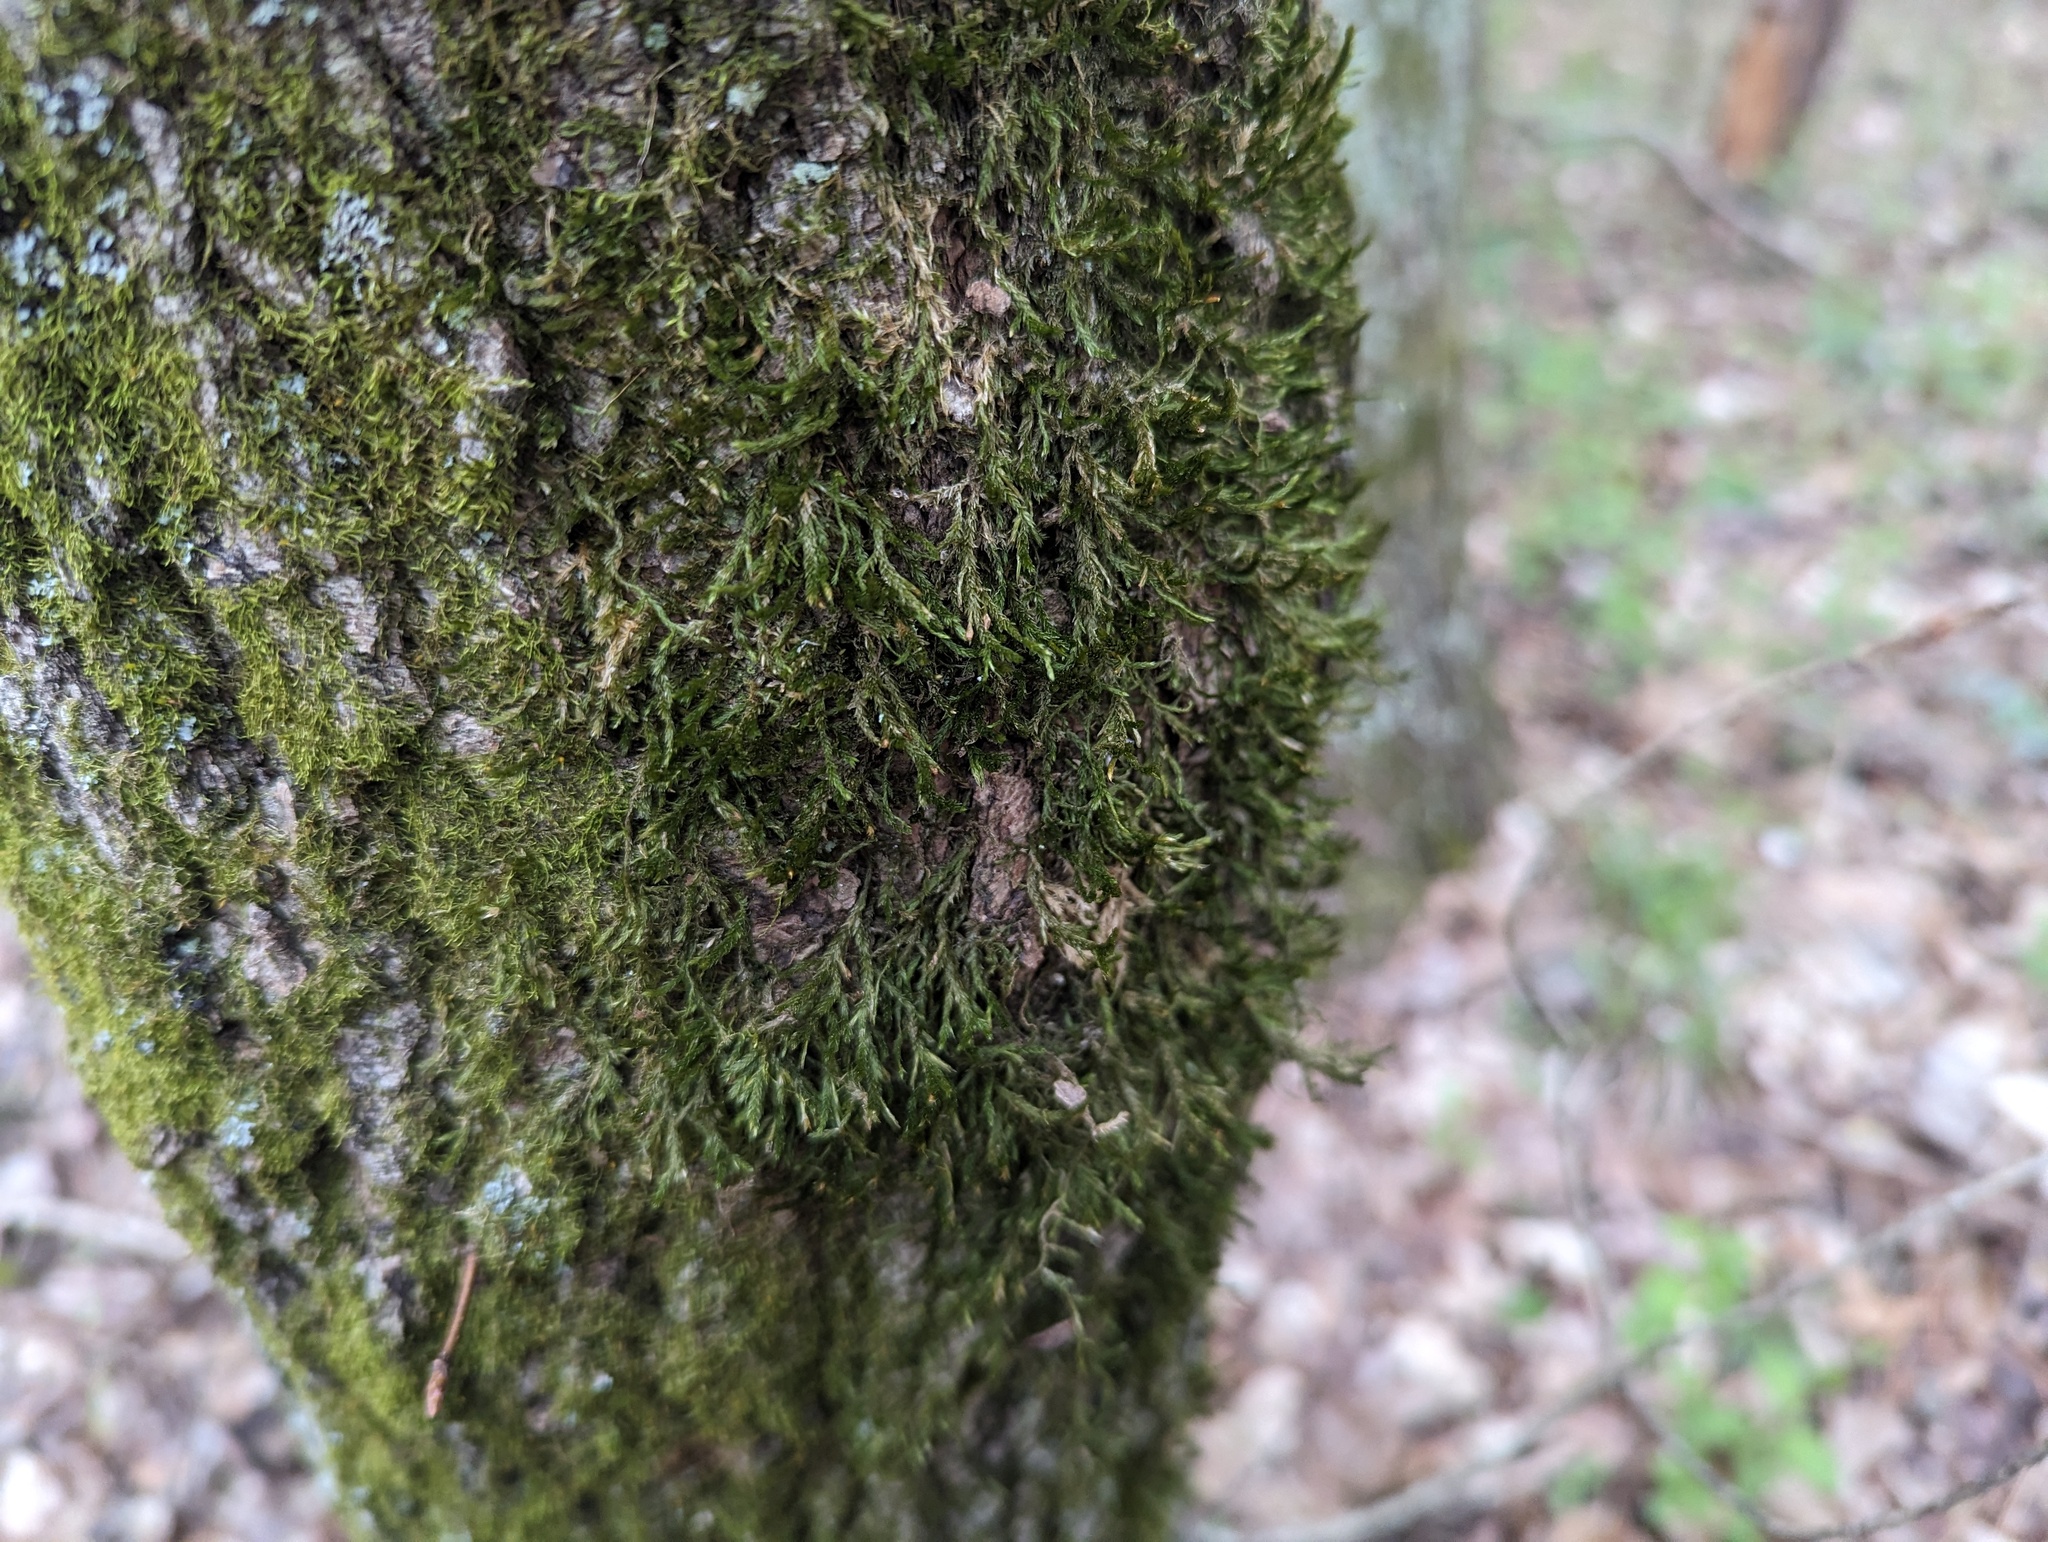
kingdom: Plantae
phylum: Bryophyta
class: Bryopsida
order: Hypnales
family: Neckeraceae
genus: Forsstroemia
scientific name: Forsstroemia trichomitria
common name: Fan moss
